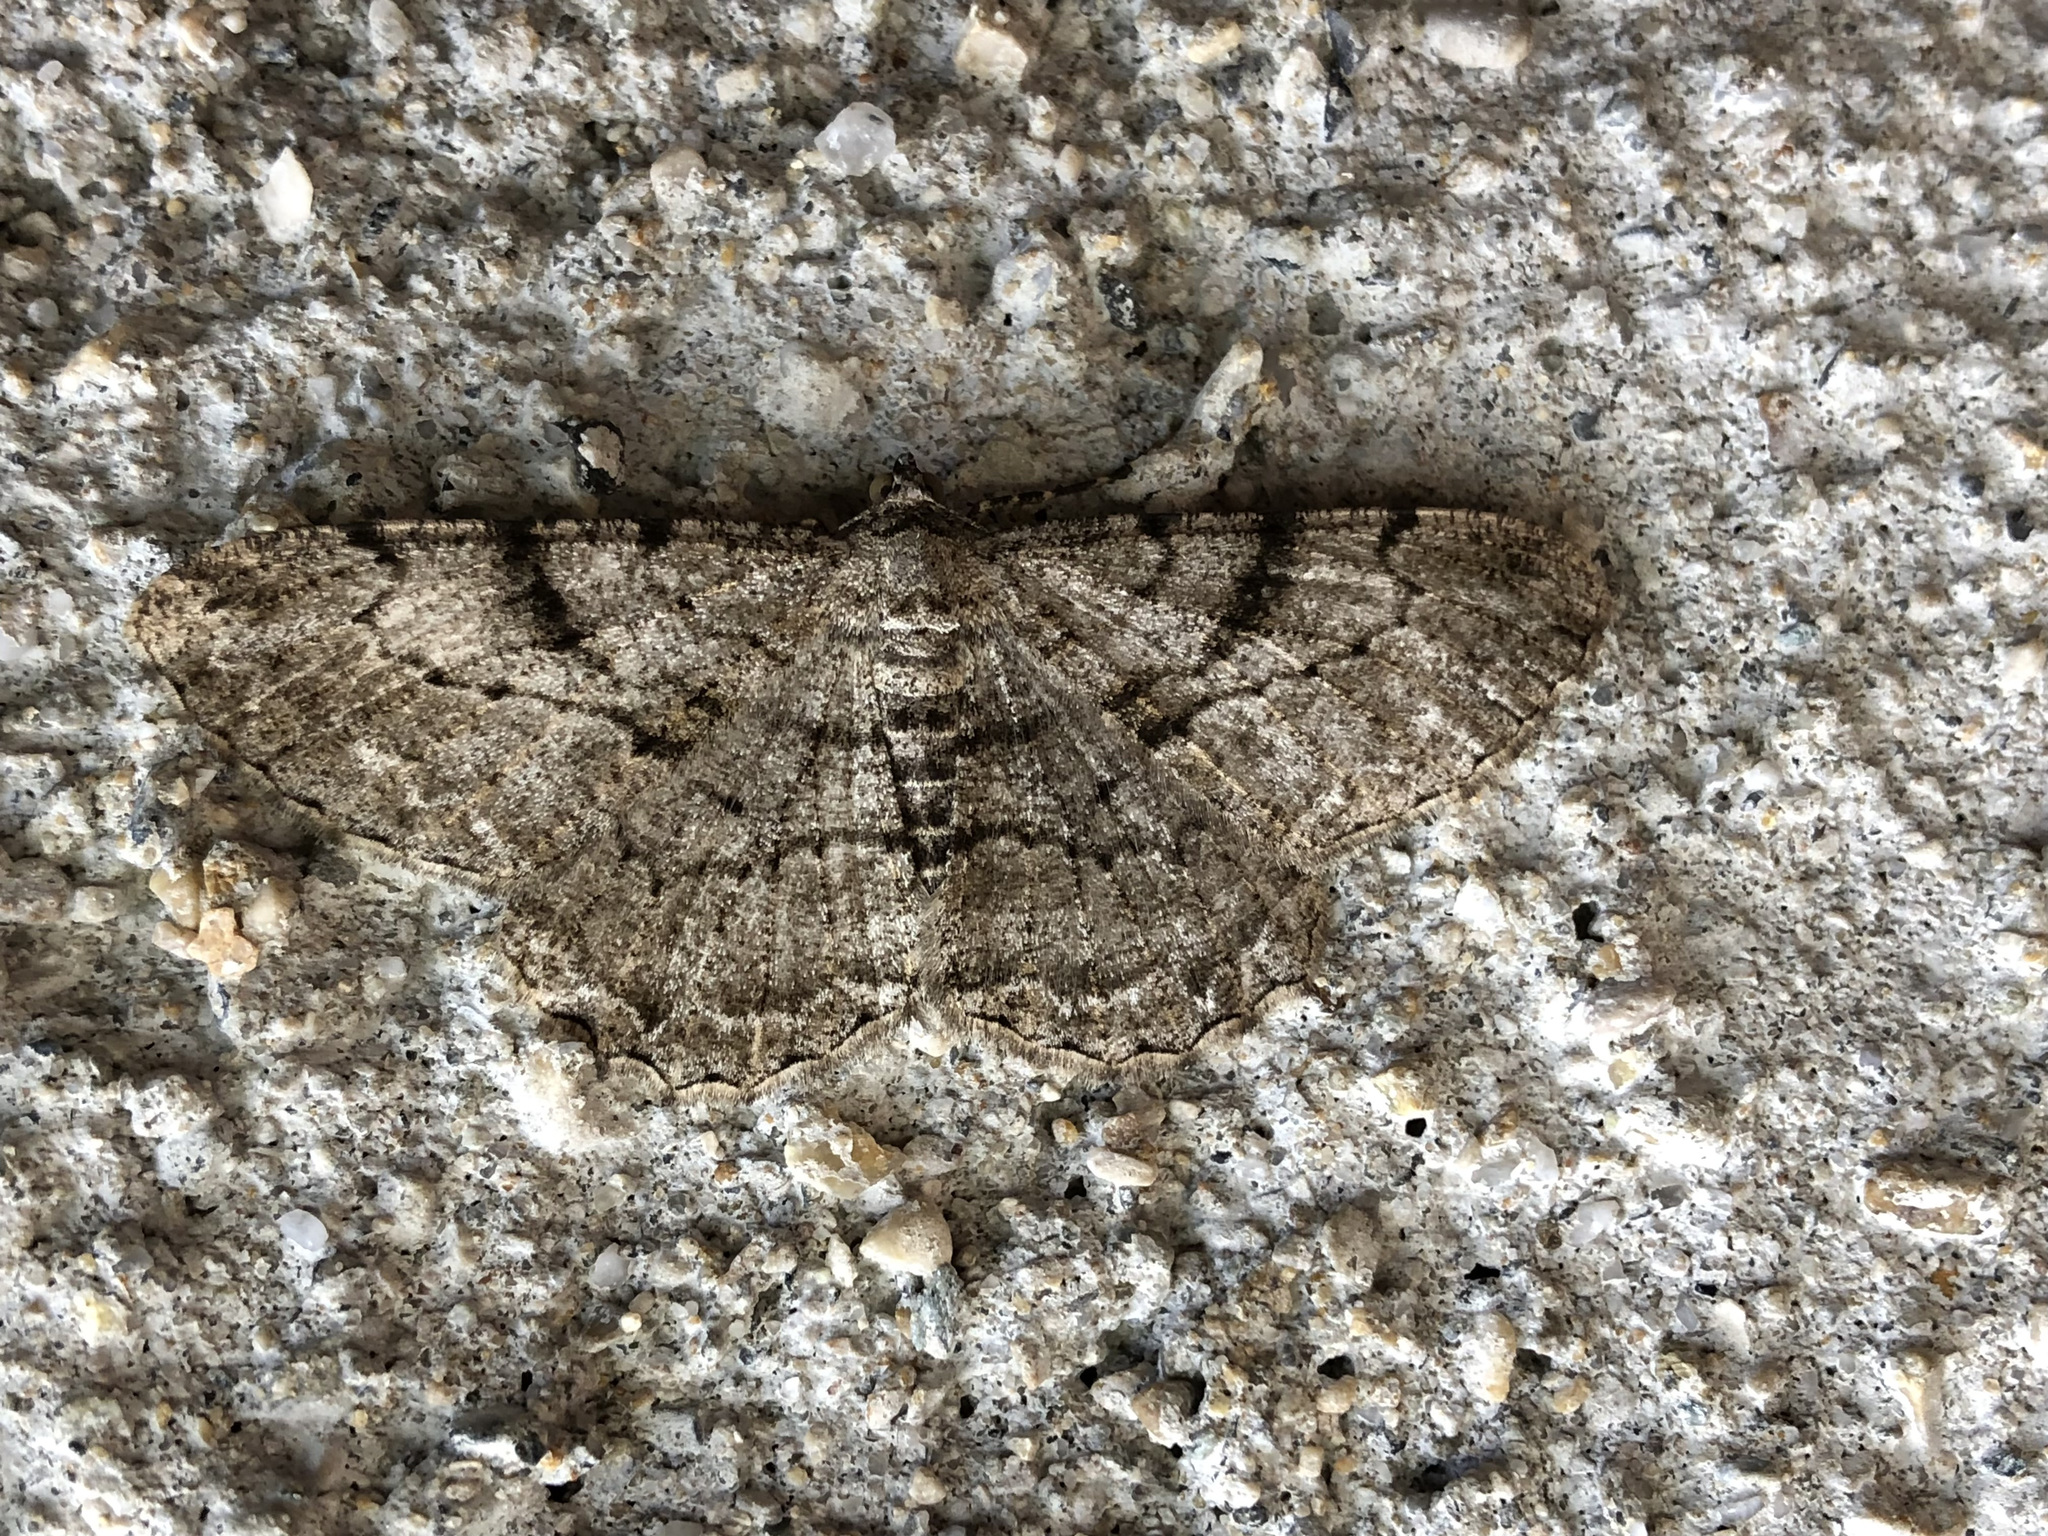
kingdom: Animalia
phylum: Arthropoda
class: Insecta
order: Lepidoptera
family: Geometridae
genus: Peribatodes
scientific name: Peribatodes rhomboidaria
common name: Willow beauty
